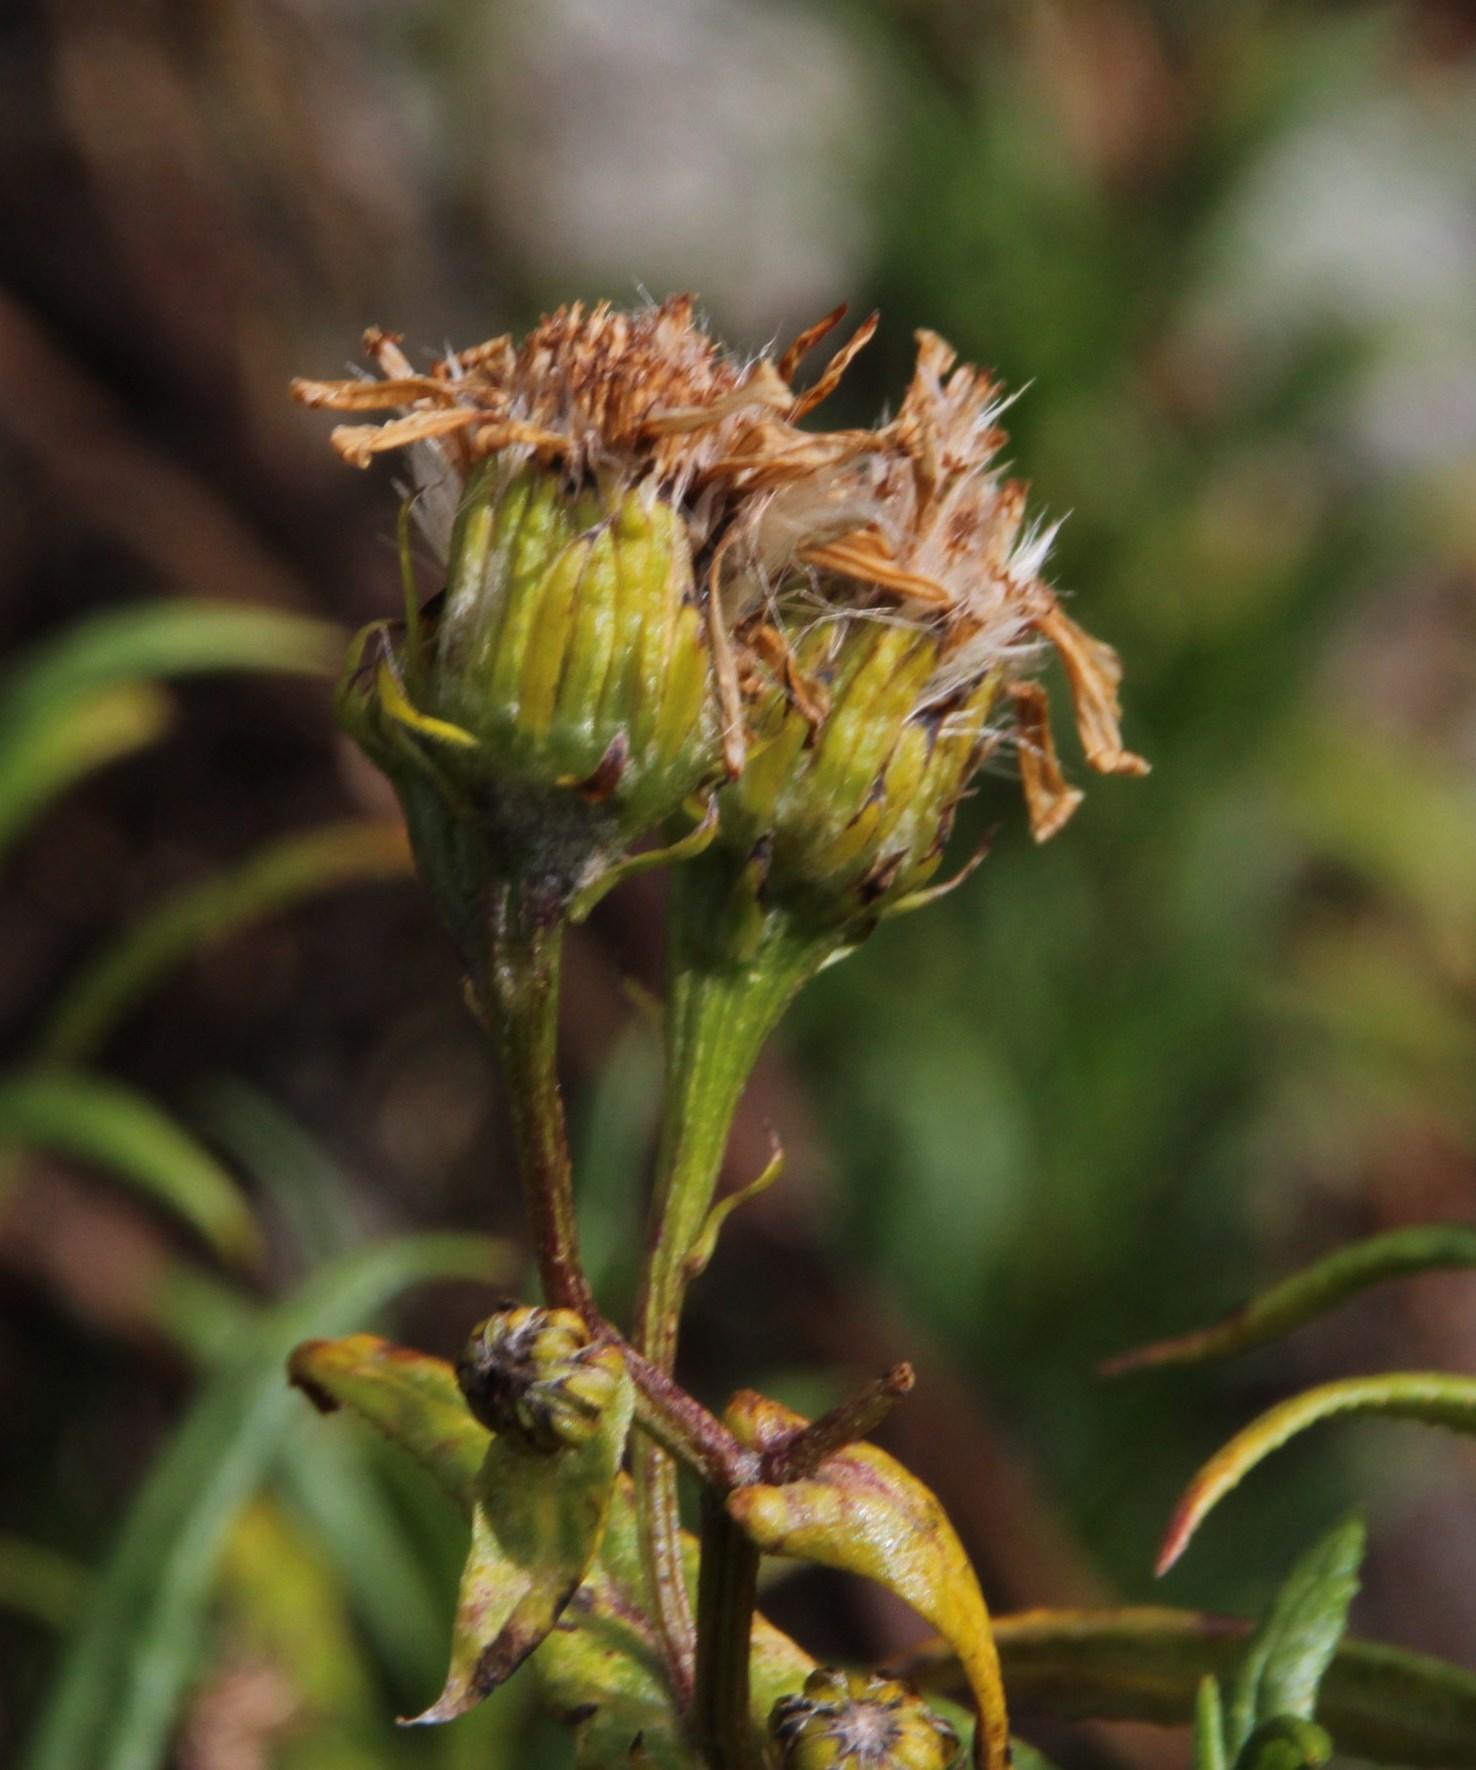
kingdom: Plantae
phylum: Tracheophyta
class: Magnoliopsida
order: Asterales
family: Asteraceae
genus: Senecio
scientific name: Senecio peruensis
